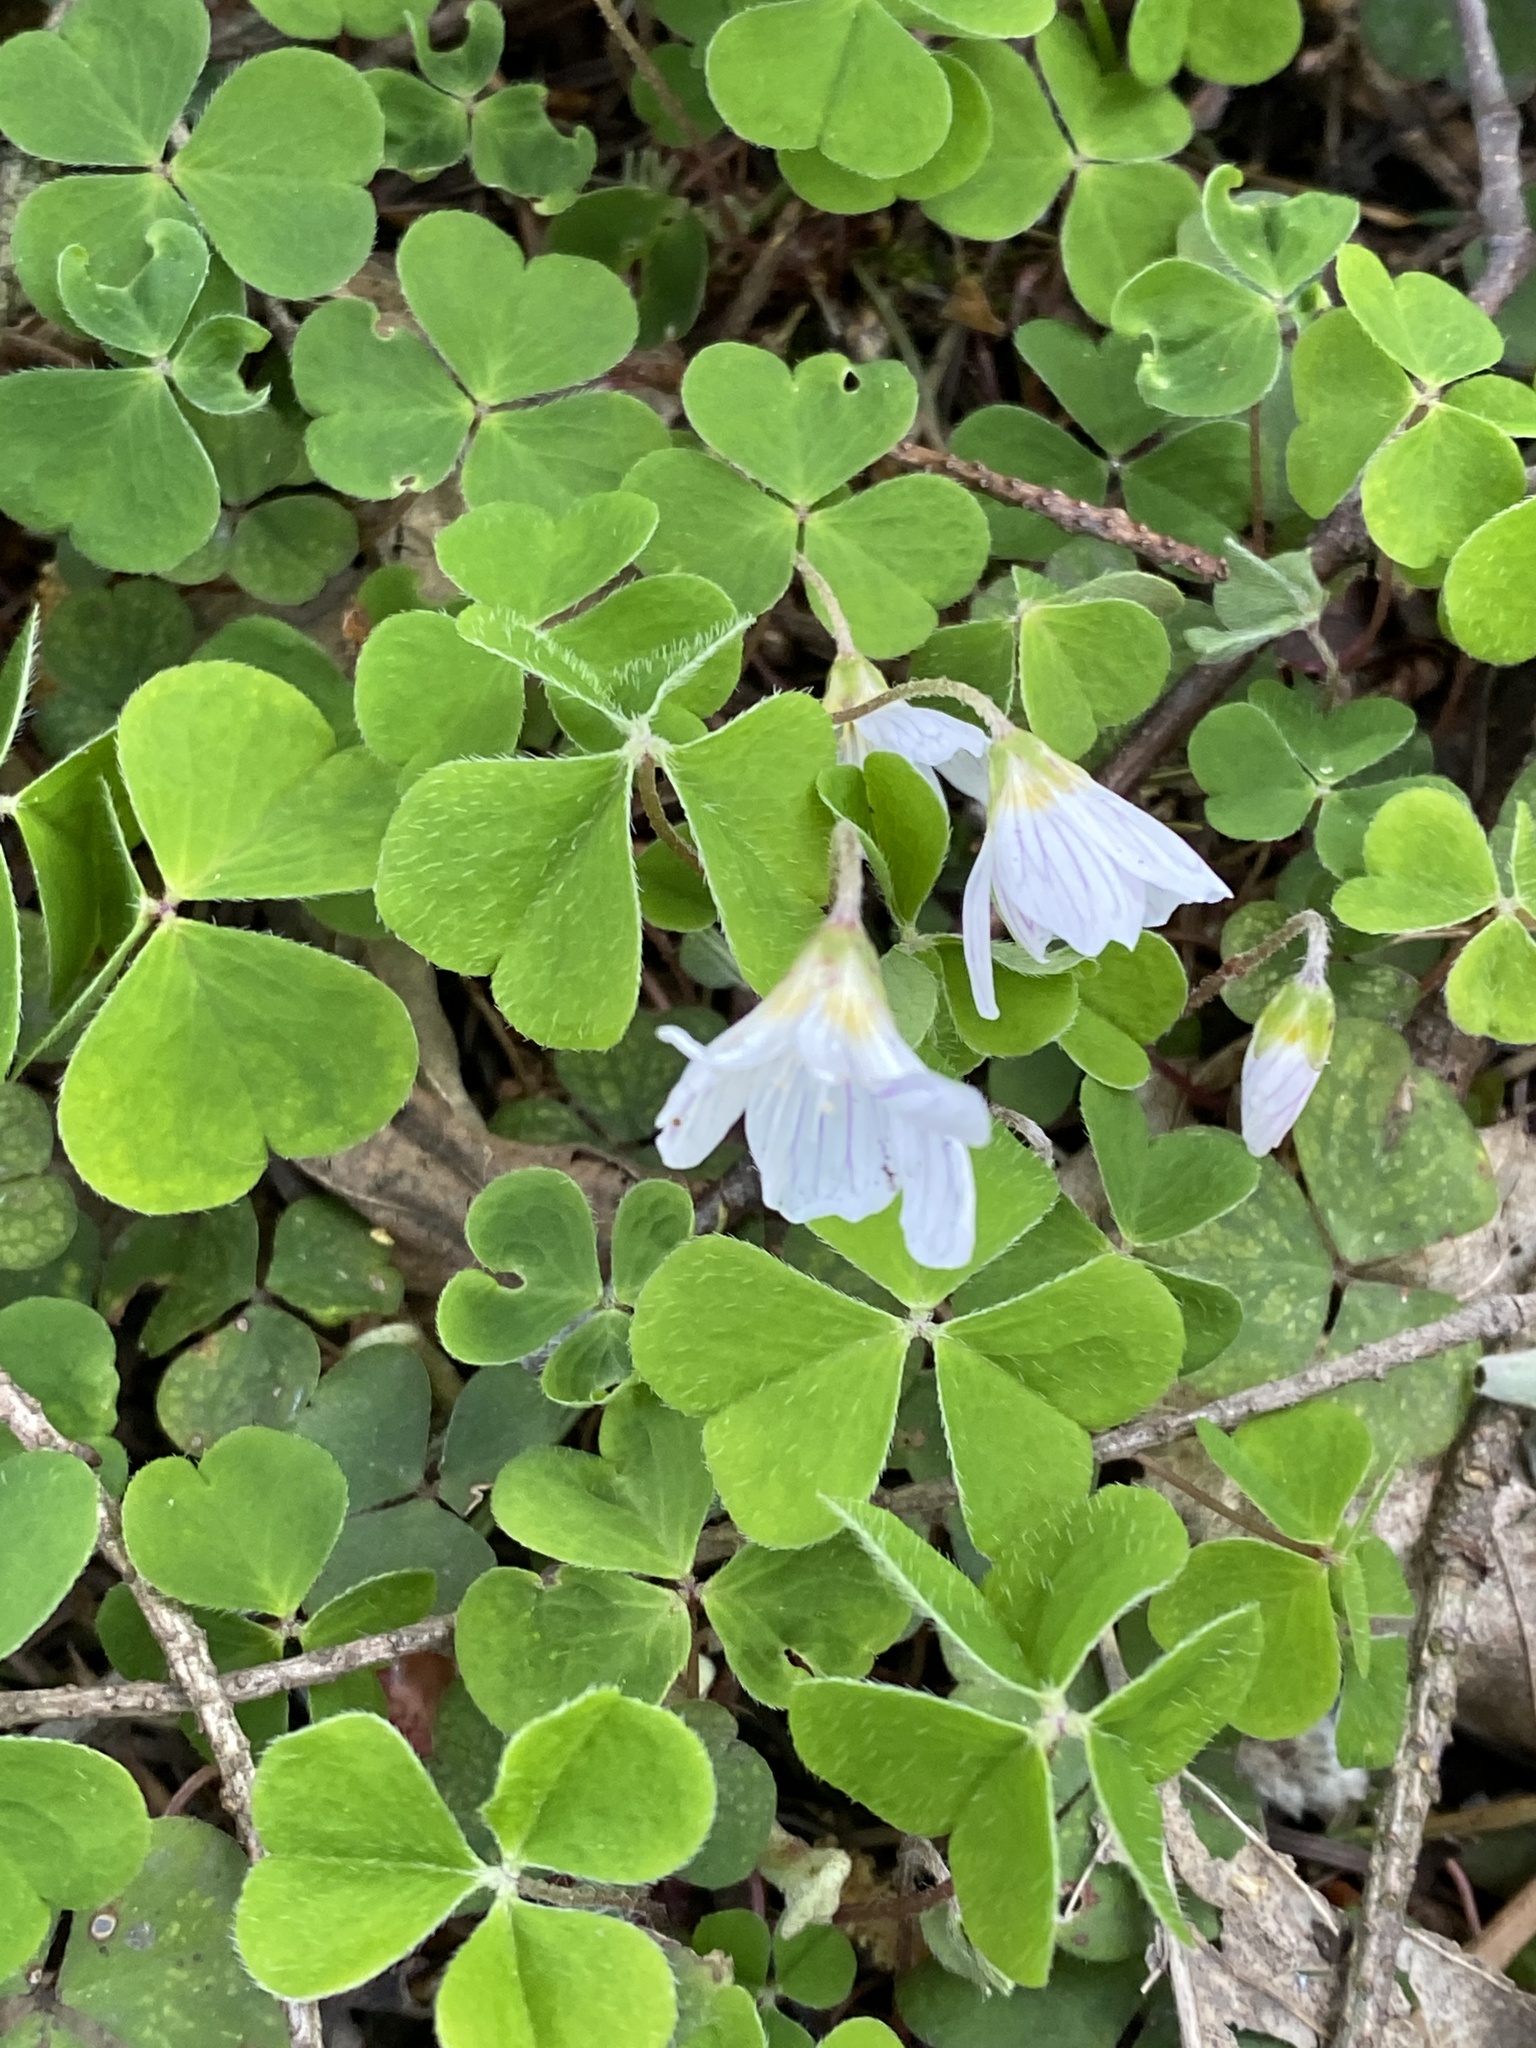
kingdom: Plantae
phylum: Tracheophyta
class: Magnoliopsida
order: Oxalidales
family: Oxalidaceae
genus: Oxalis
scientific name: Oxalis acetosella
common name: Wood-sorrel
